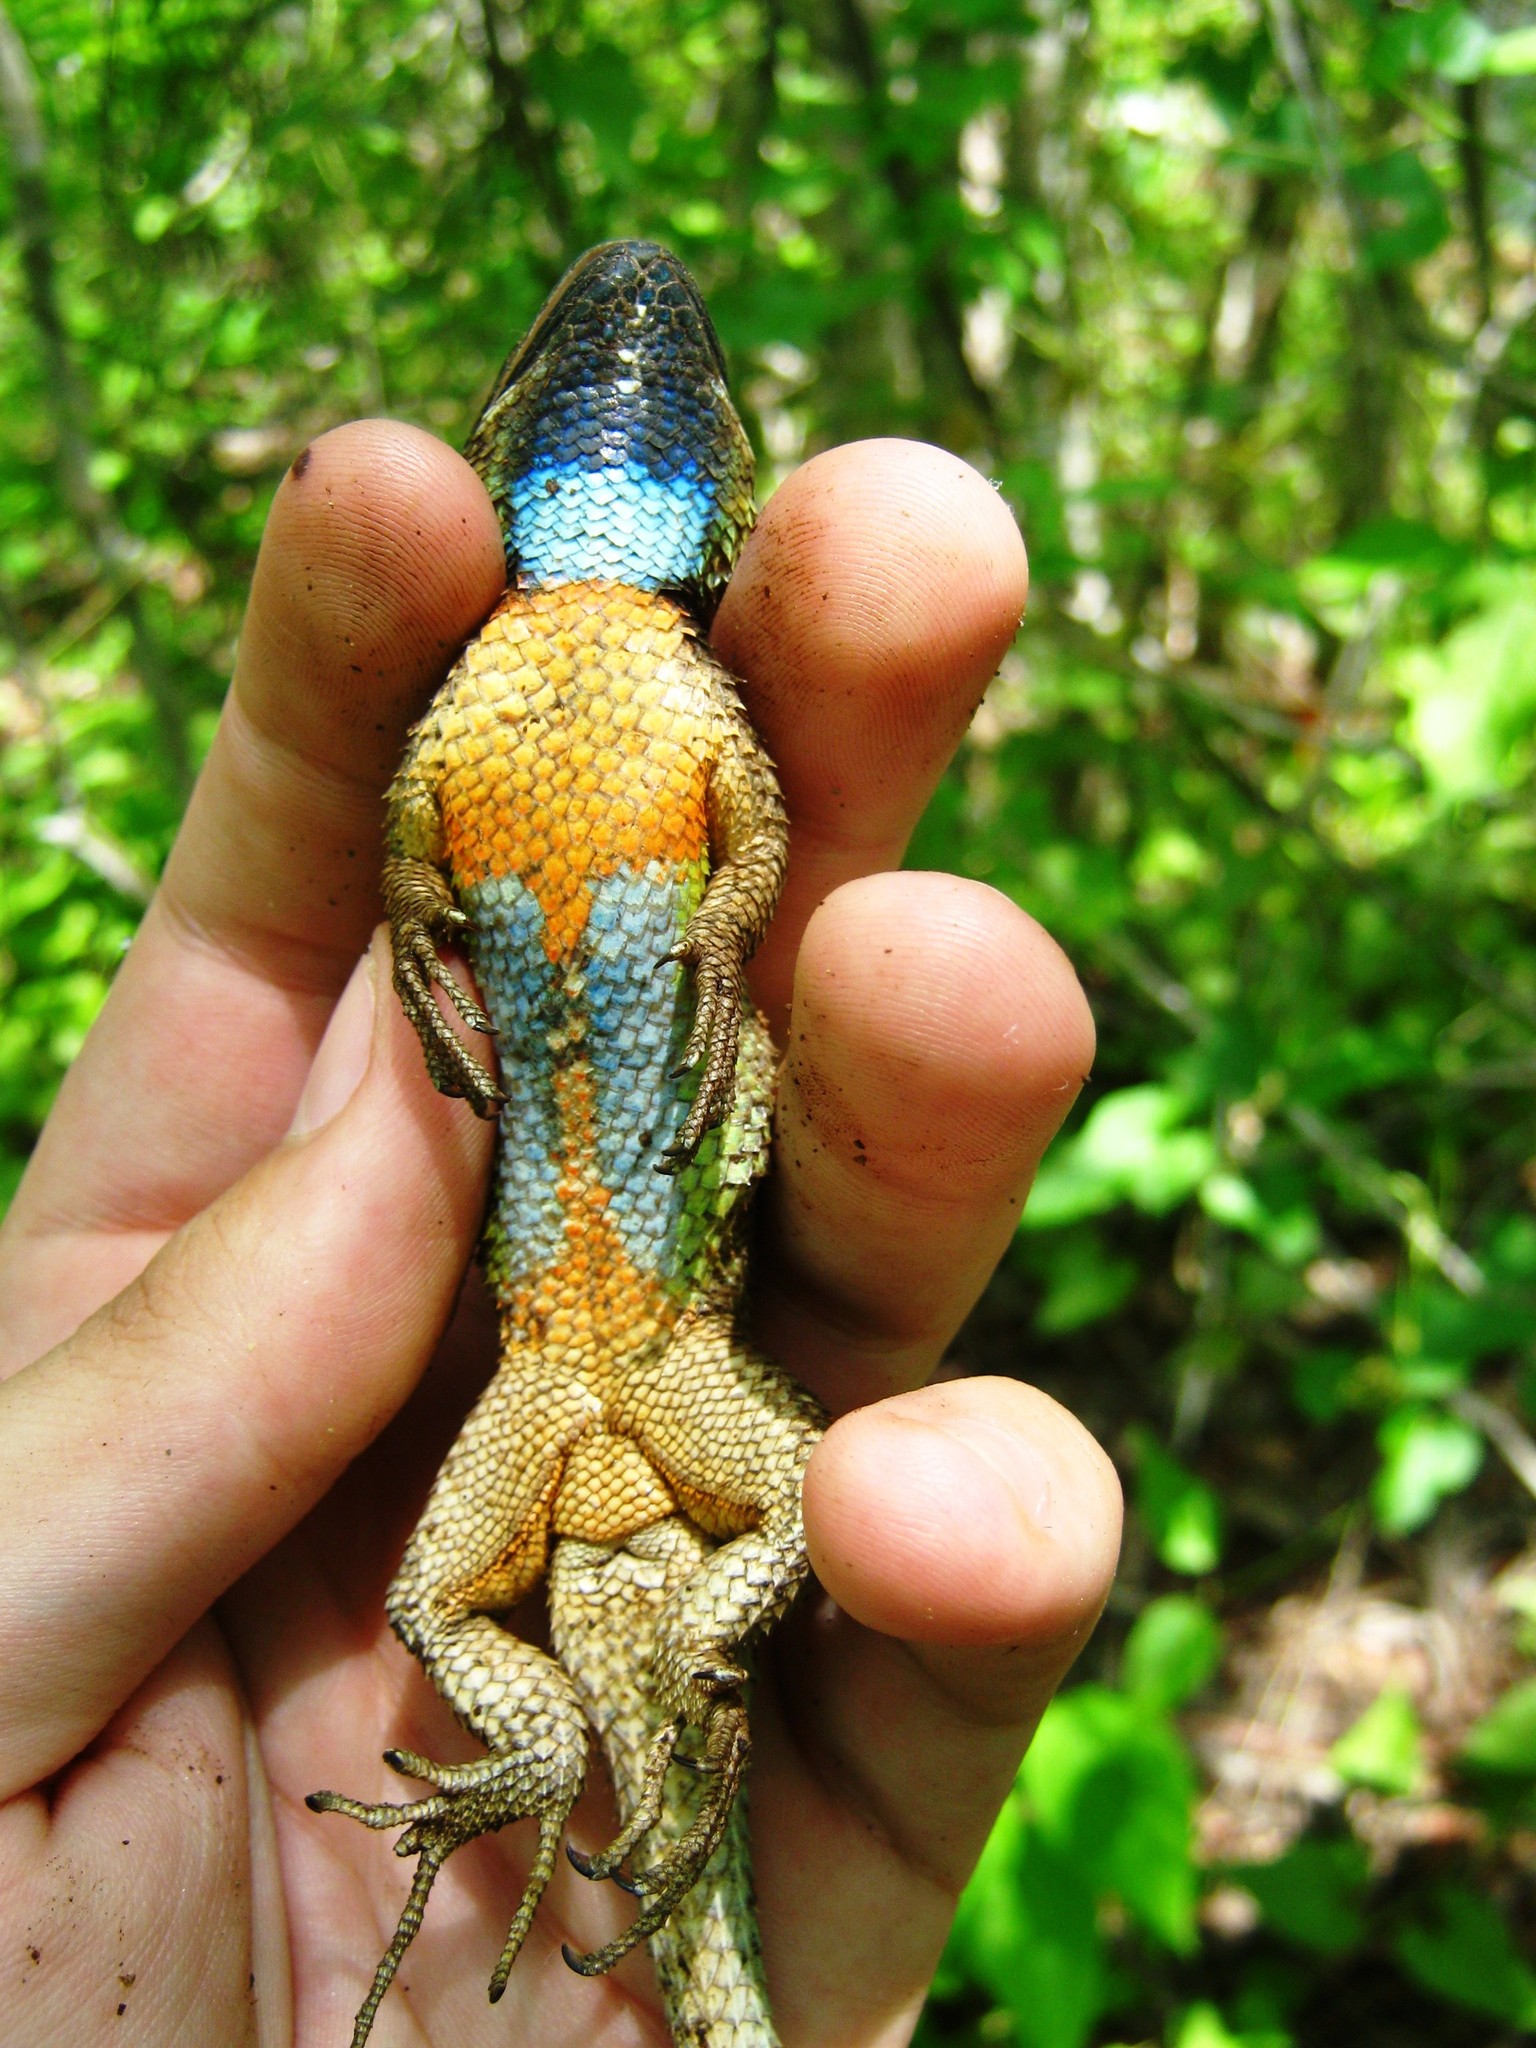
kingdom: Animalia
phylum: Chordata
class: Squamata
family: Phrynosomatidae
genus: Sceloporus
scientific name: Sceloporus melanorhinus
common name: Black-nosed lizard
